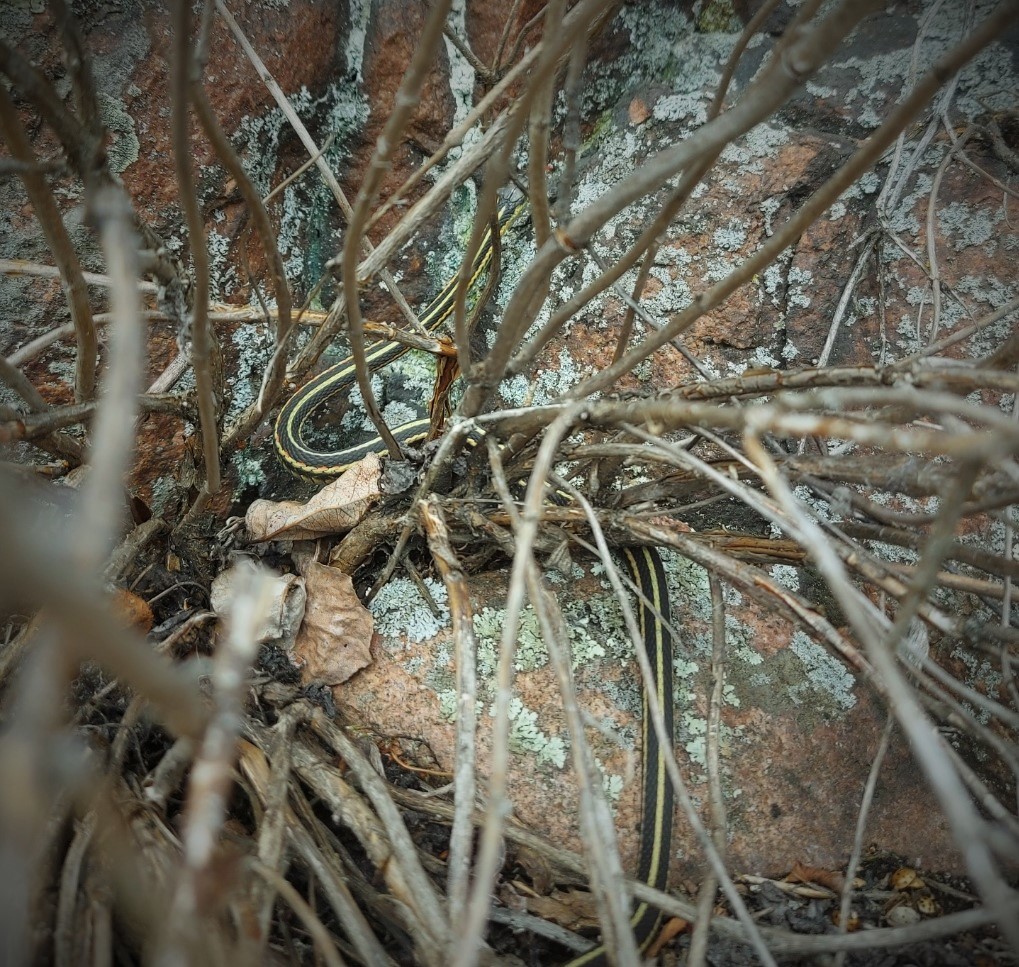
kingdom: Animalia
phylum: Chordata
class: Squamata
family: Colubridae
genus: Thamnophis
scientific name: Thamnophis sirtalis
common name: Common garter snake
